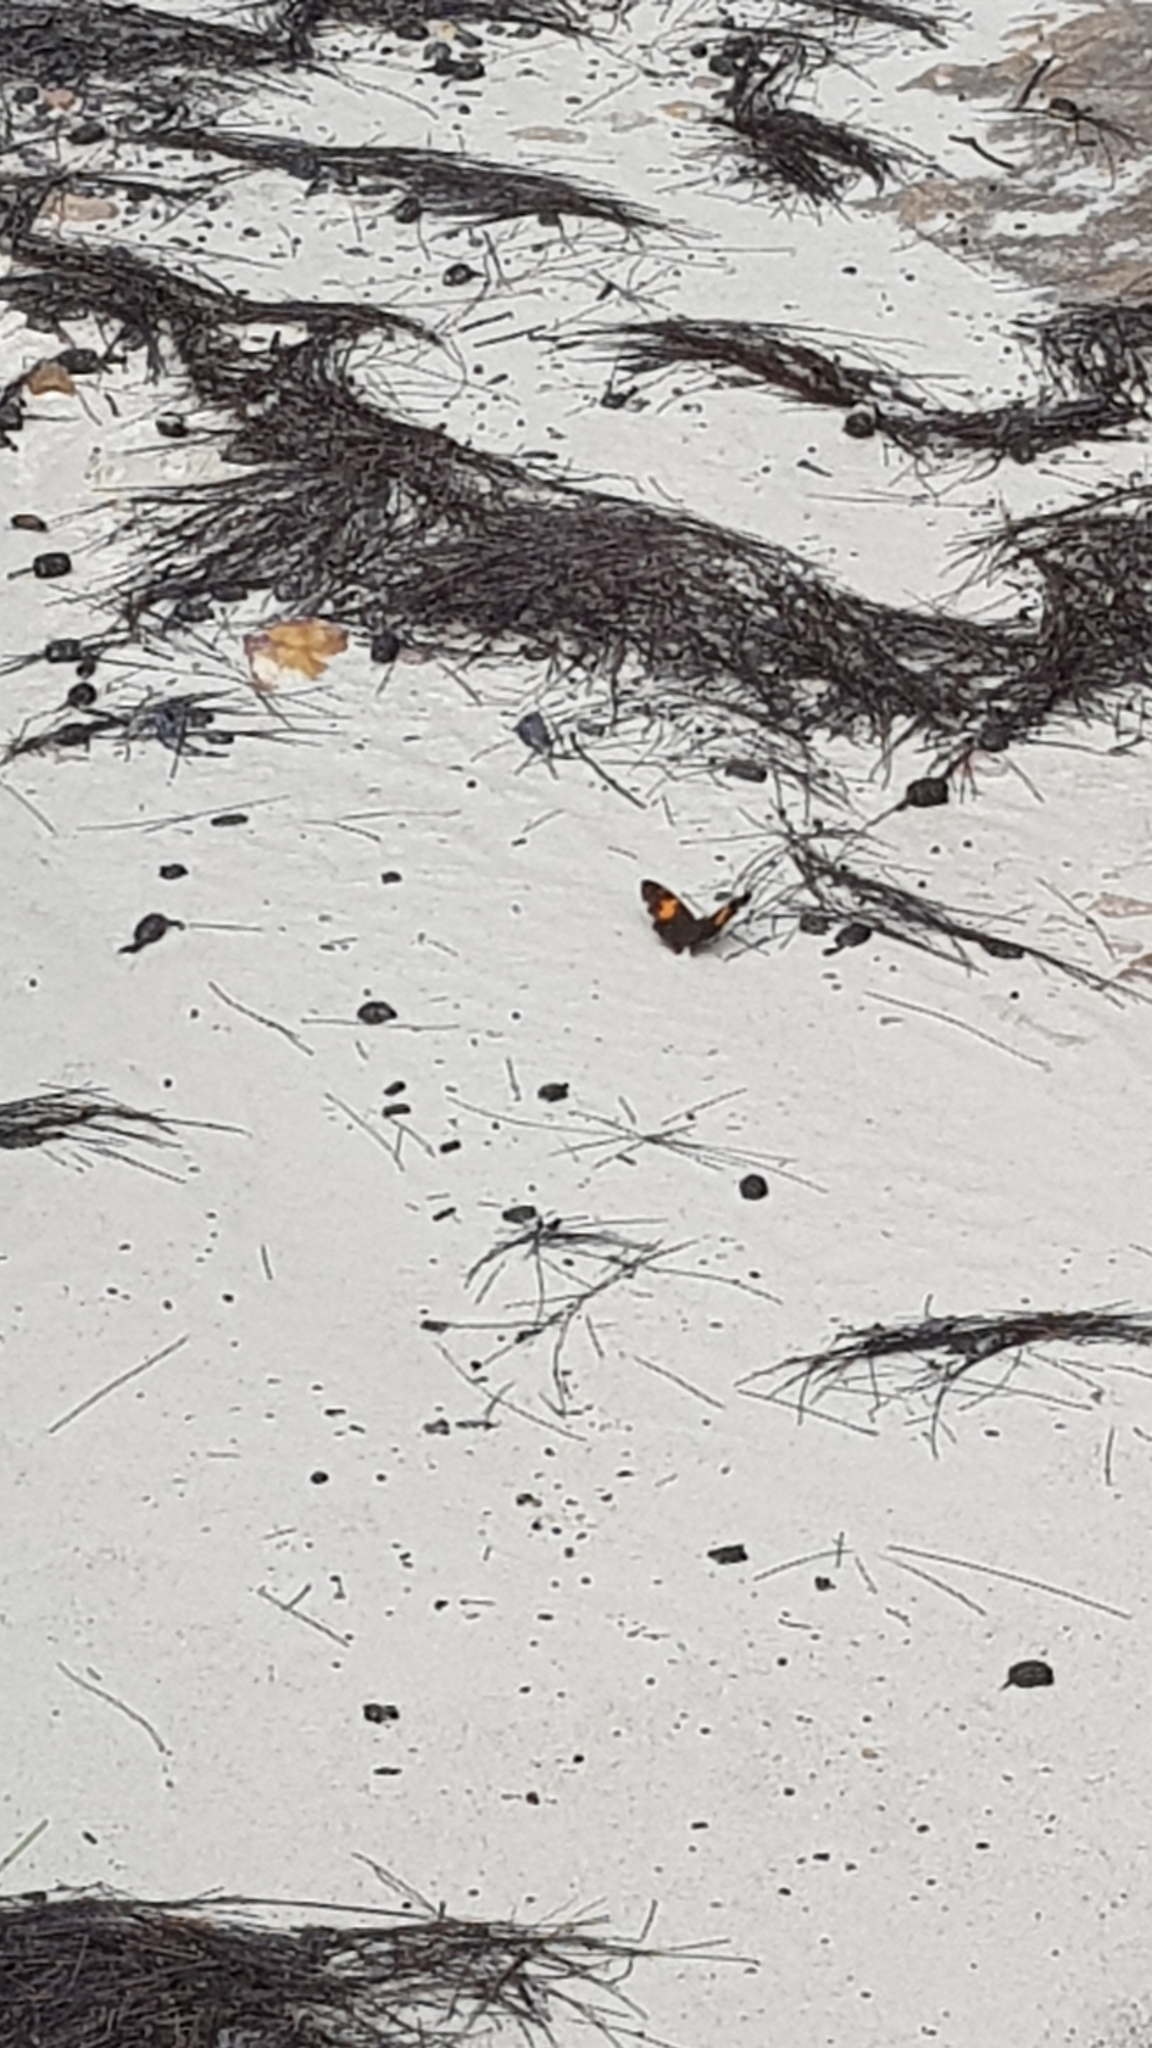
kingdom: Animalia
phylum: Arthropoda
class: Insecta
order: Lepidoptera
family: Nymphalidae
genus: Tisiphone
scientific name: Tisiphone abeona
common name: Swordgrass brown
